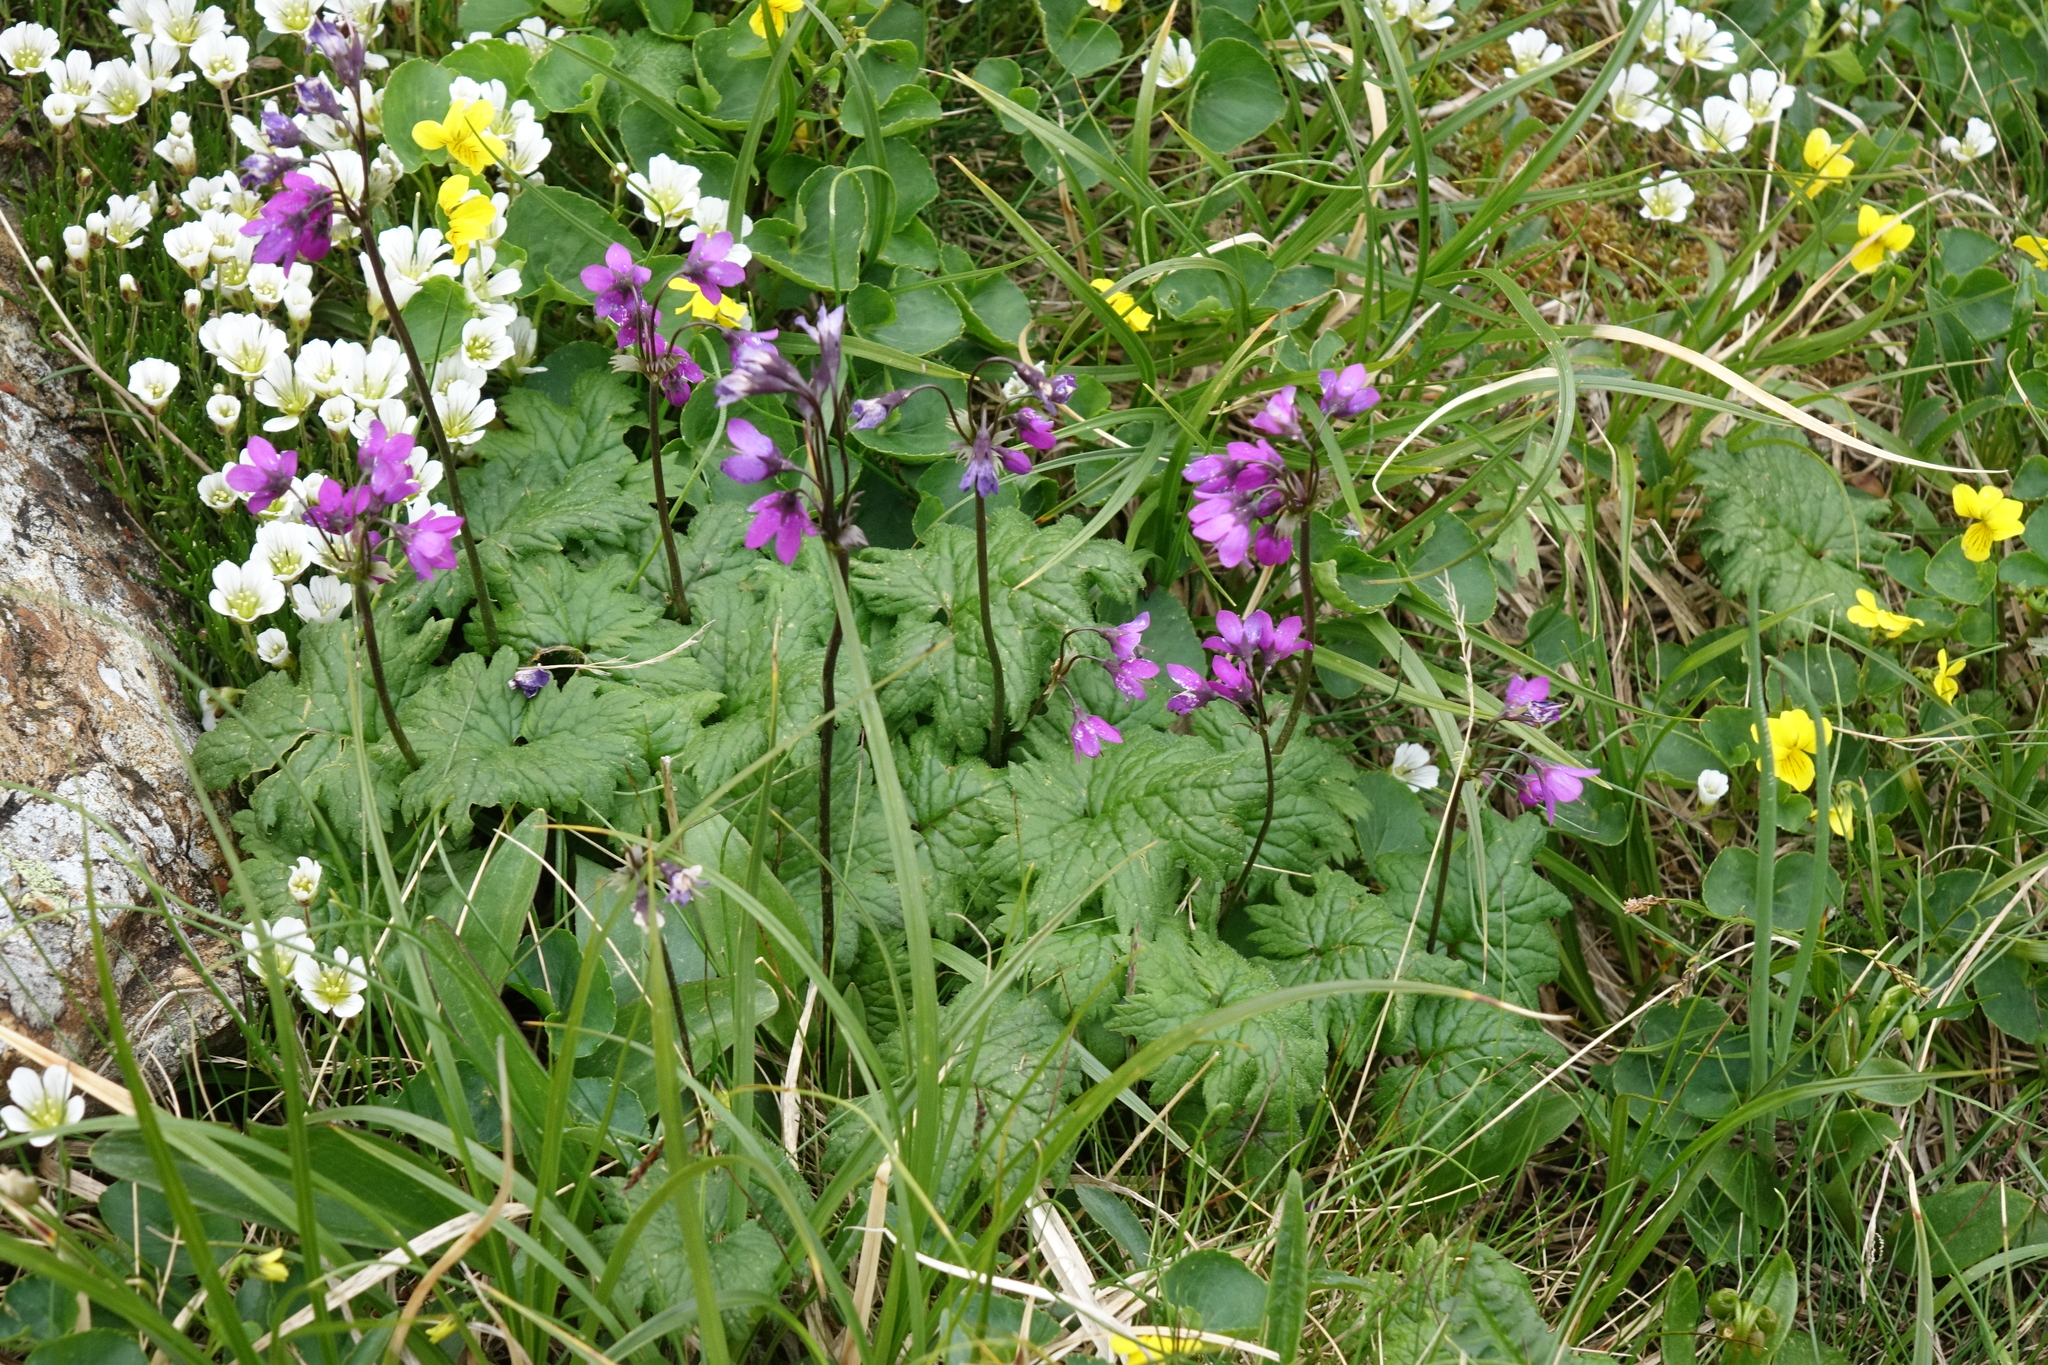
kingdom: Plantae
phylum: Tracheophyta
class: Magnoliopsida
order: Ericales
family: Primulaceae
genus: Primula
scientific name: Primula matthioli
